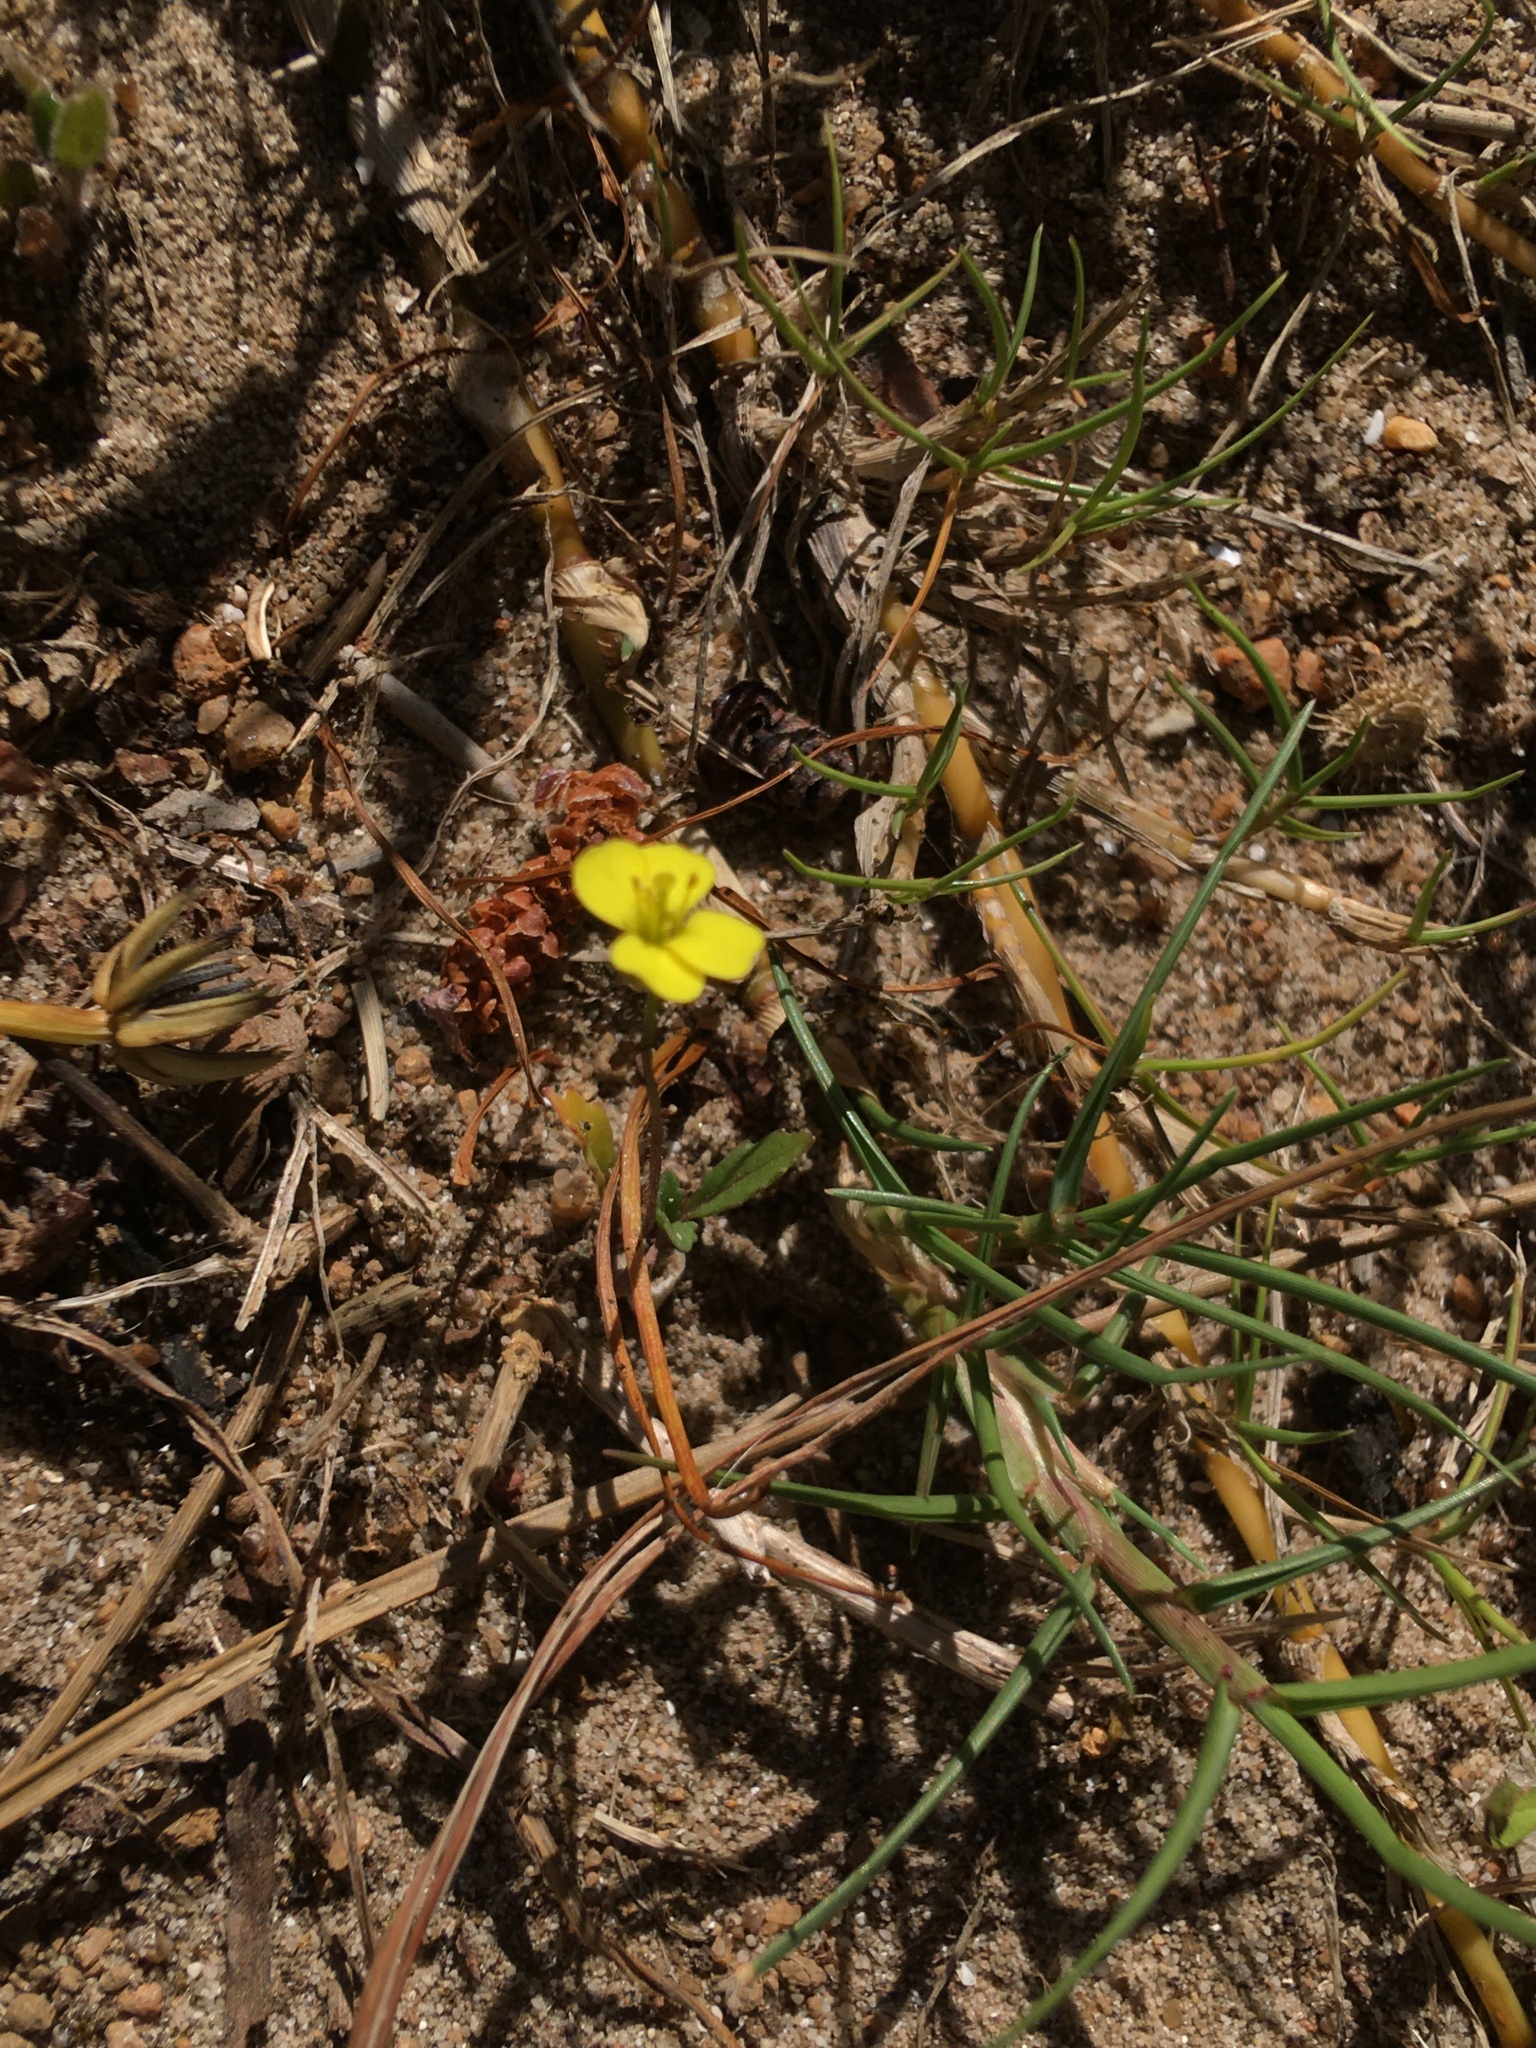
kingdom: Plantae
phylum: Tracheophyta
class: Magnoliopsida
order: Brassicales
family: Brassicaceae
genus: Diplotaxis
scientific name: Diplotaxis muralis
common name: Annual wall-rocket
